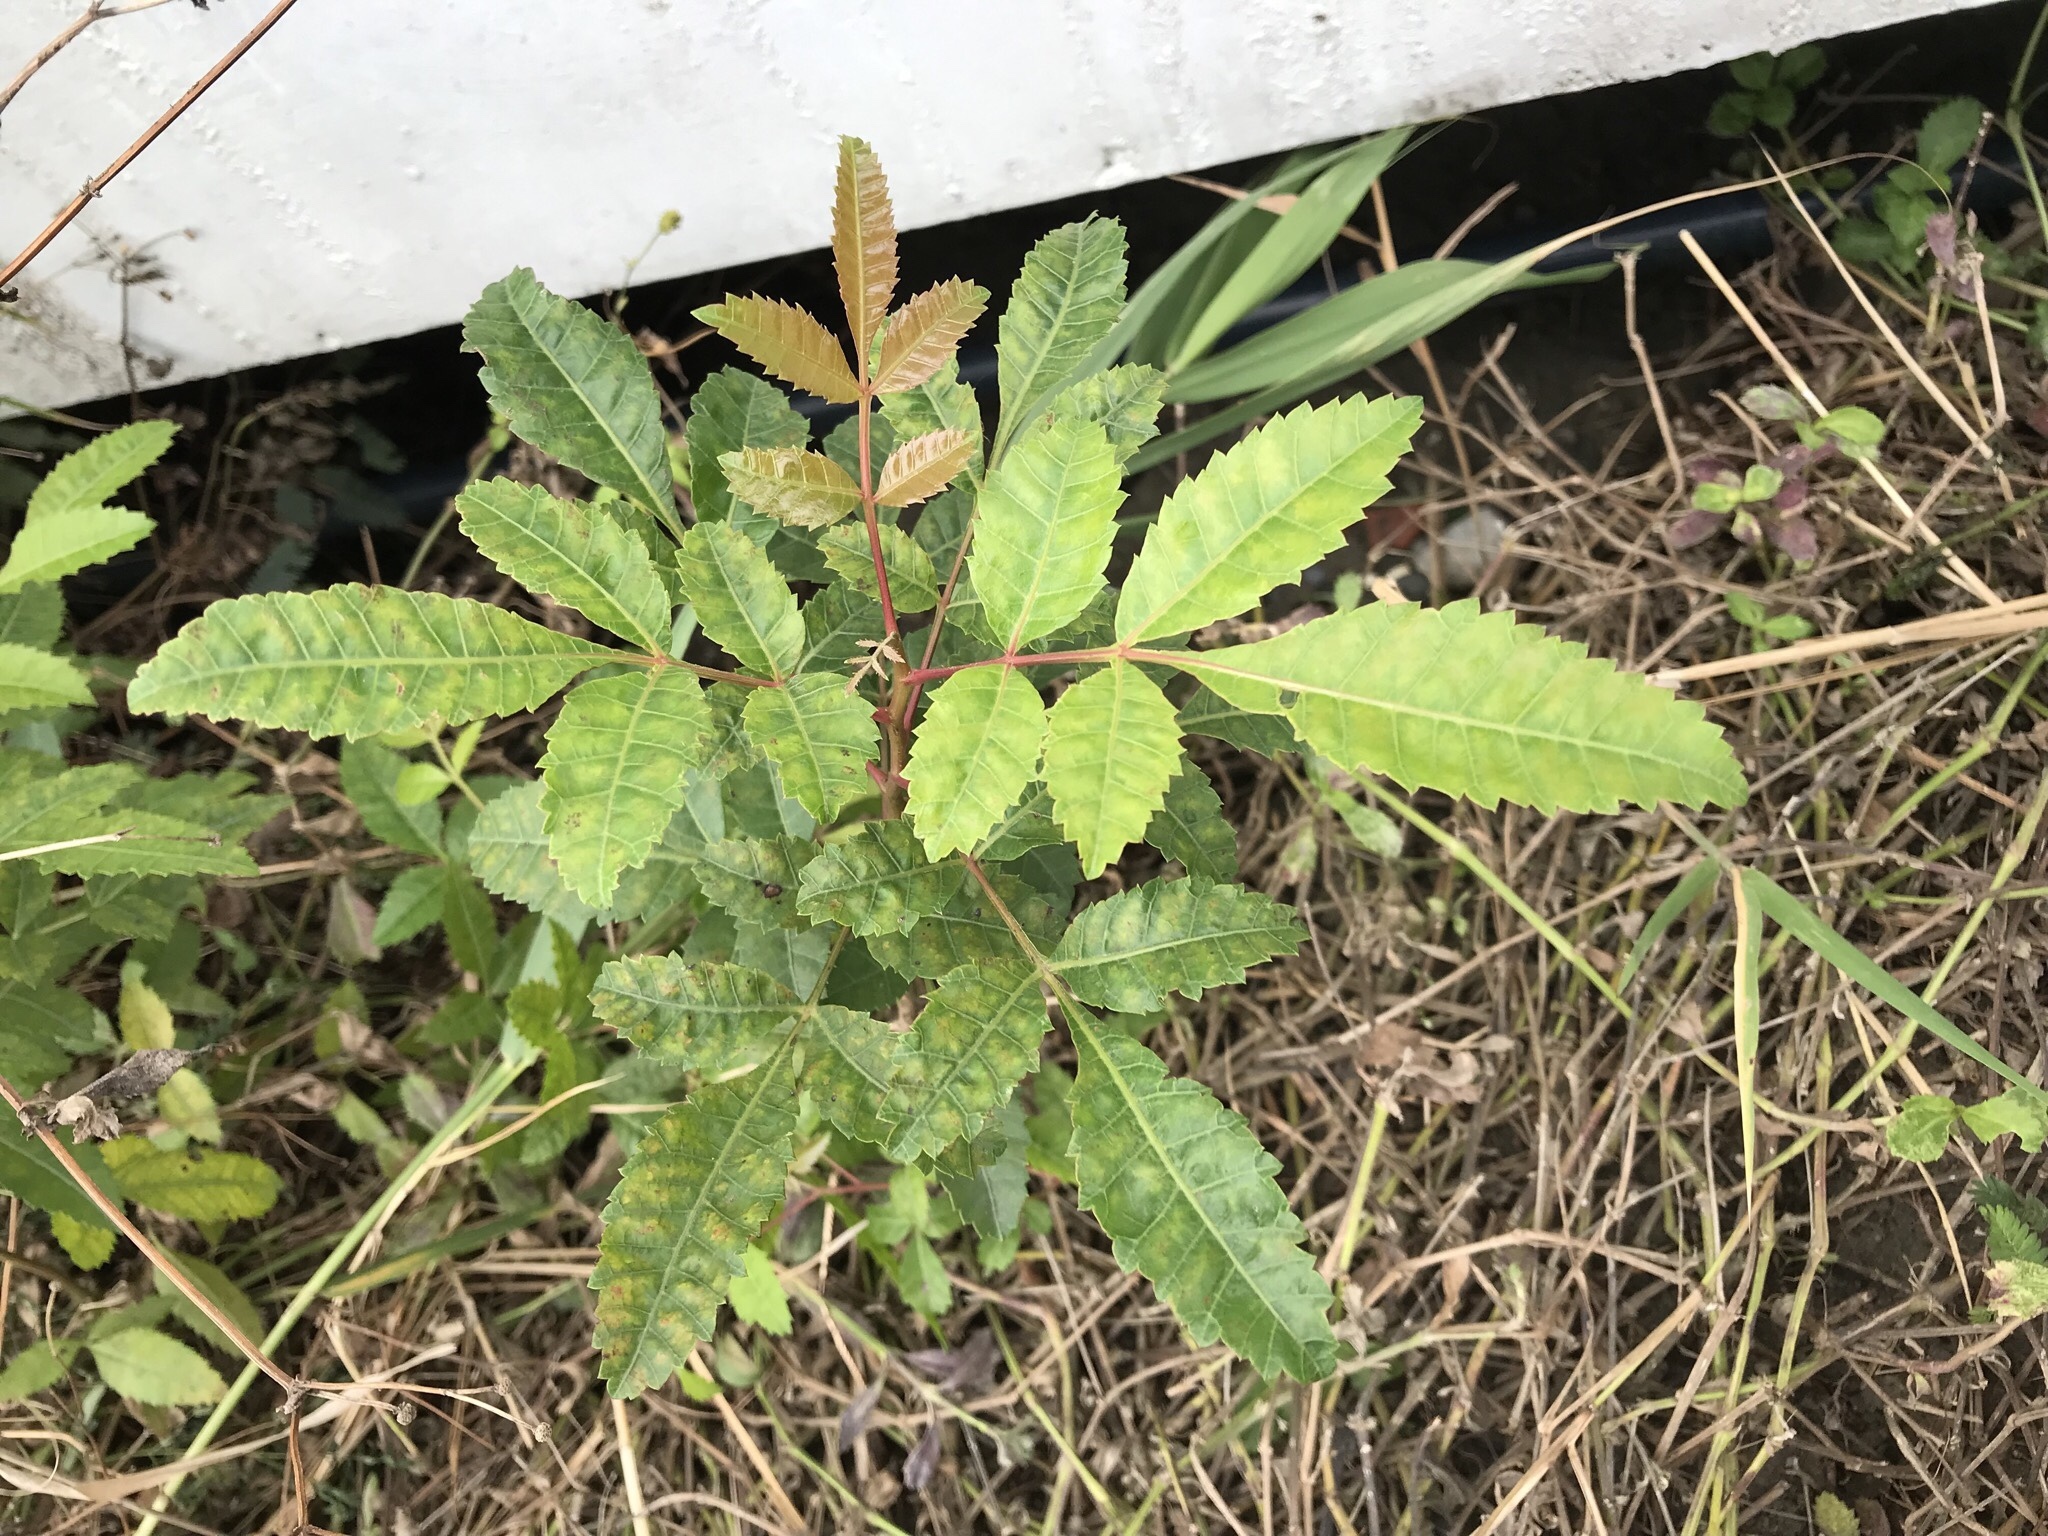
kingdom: Plantae
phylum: Tracheophyta
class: Magnoliopsida
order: Sapindales
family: Anacardiaceae
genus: Schinus
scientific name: Schinus terebinthifolia
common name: Brazilian peppertree
